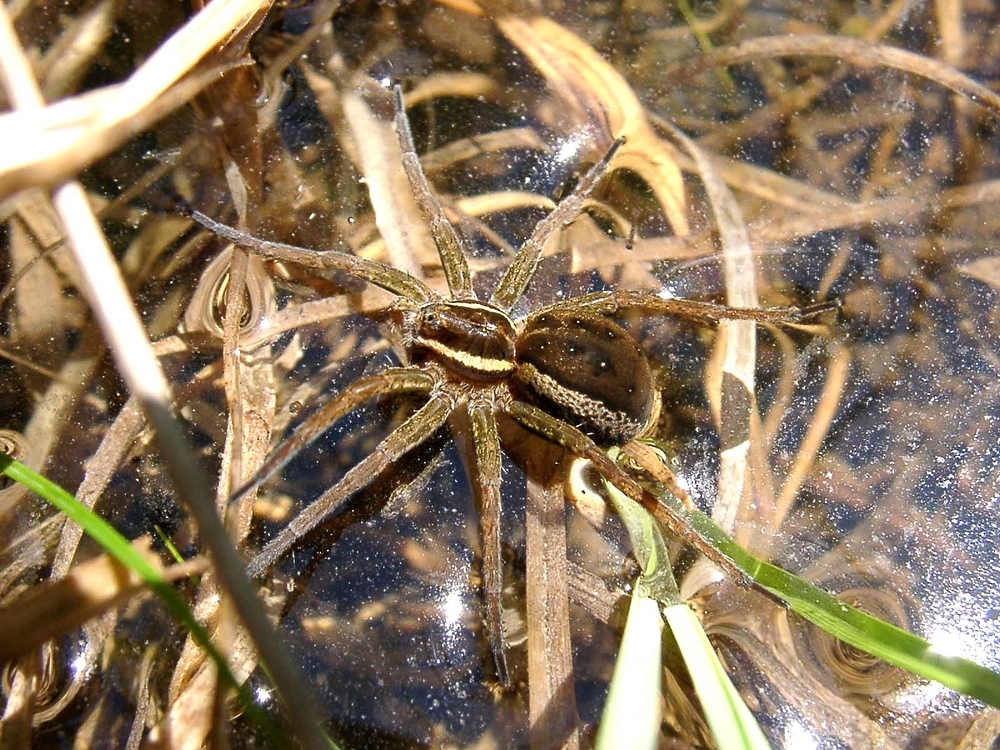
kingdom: Animalia
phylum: Arthropoda
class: Arachnida
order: Araneae
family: Pisauridae
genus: Dolomedes
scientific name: Dolomedes
